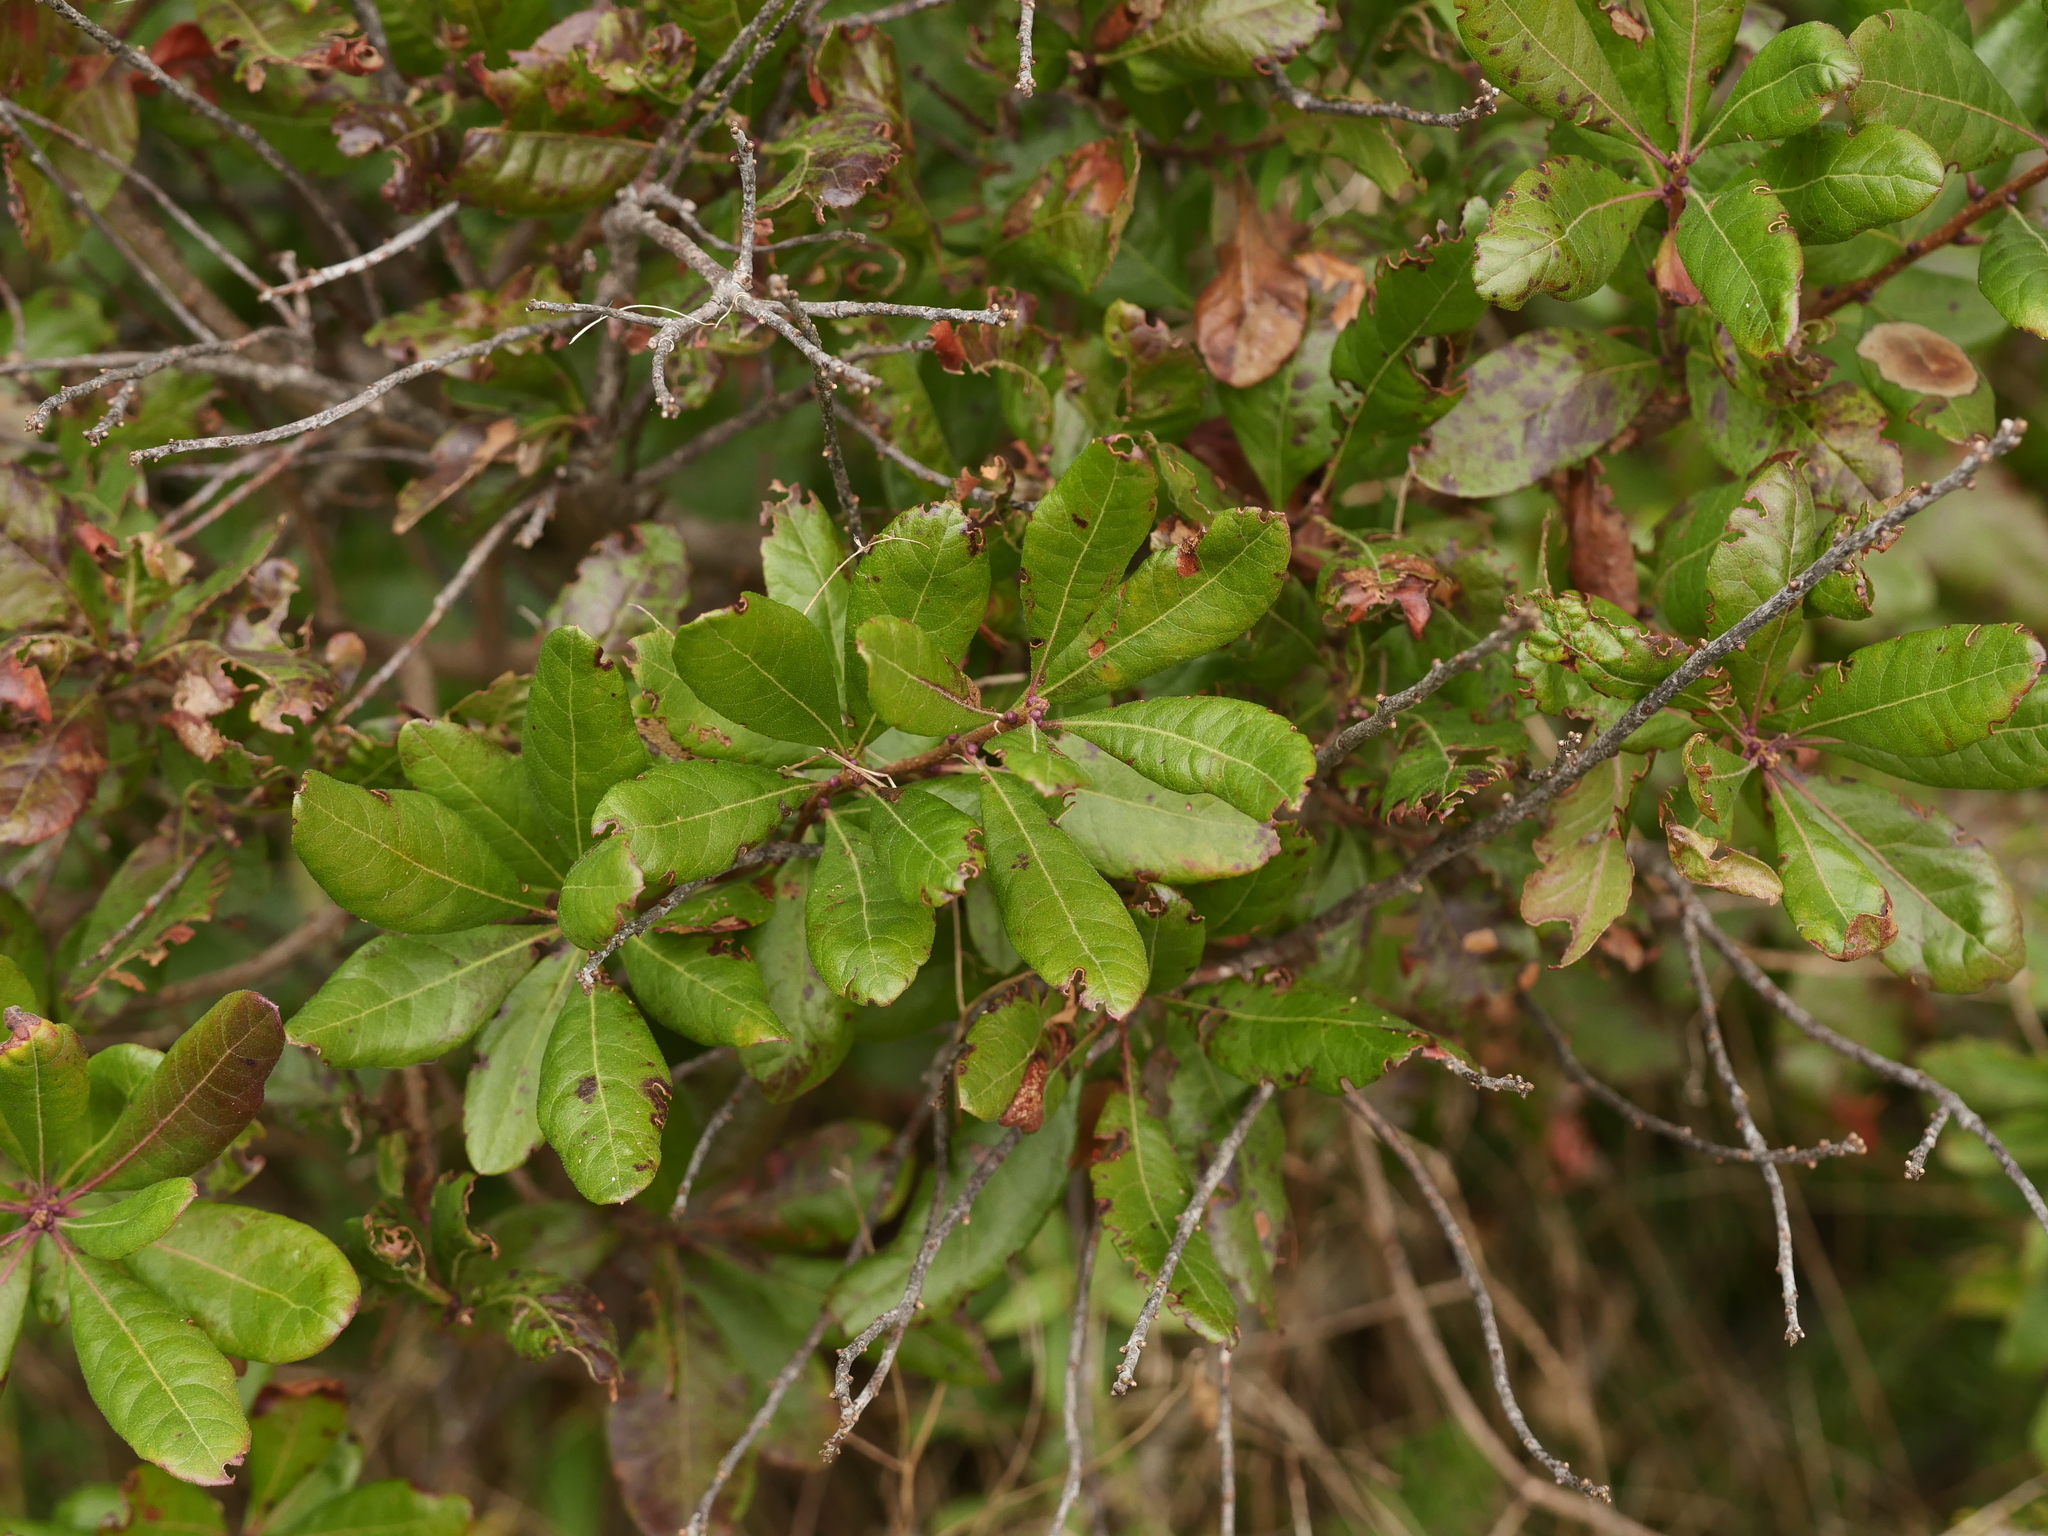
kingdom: Plantae
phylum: Tracheophyta
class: Magnoliopsida
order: Fagales
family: Myricaceae
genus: Morella
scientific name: Morella pensylvanica
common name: Northern bayberry
